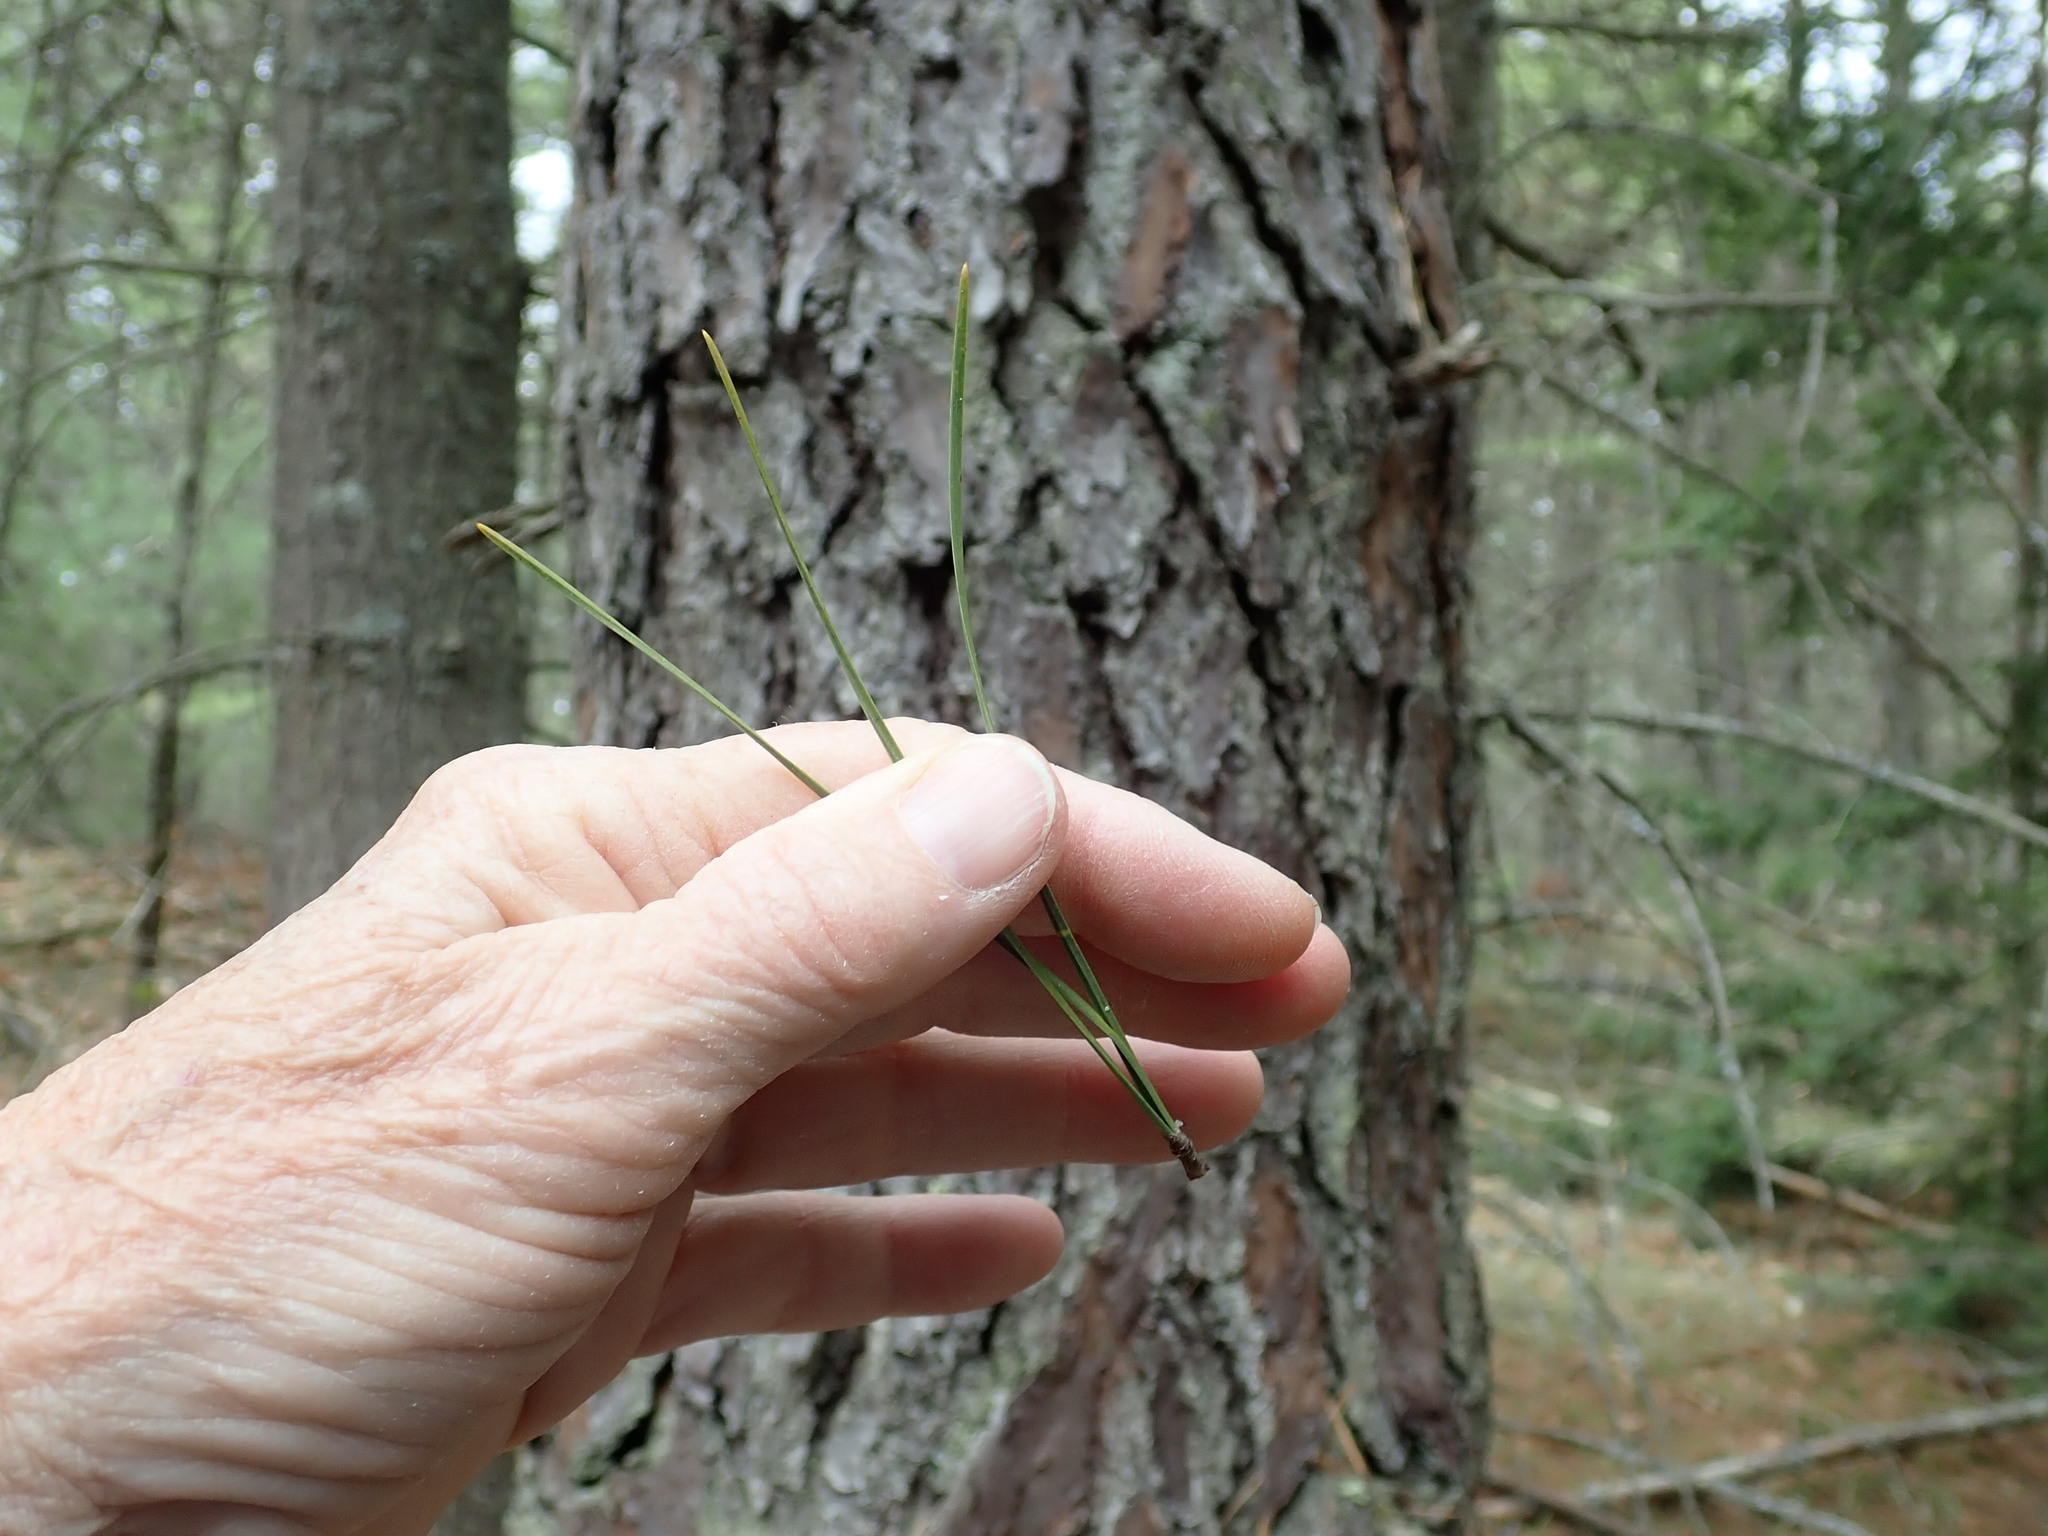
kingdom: Plantae
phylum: Tracheophyta
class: Pinopsida
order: Pinales
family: Pinaceae
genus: Pinus
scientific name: Pinus rigida
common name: Pitch pine
